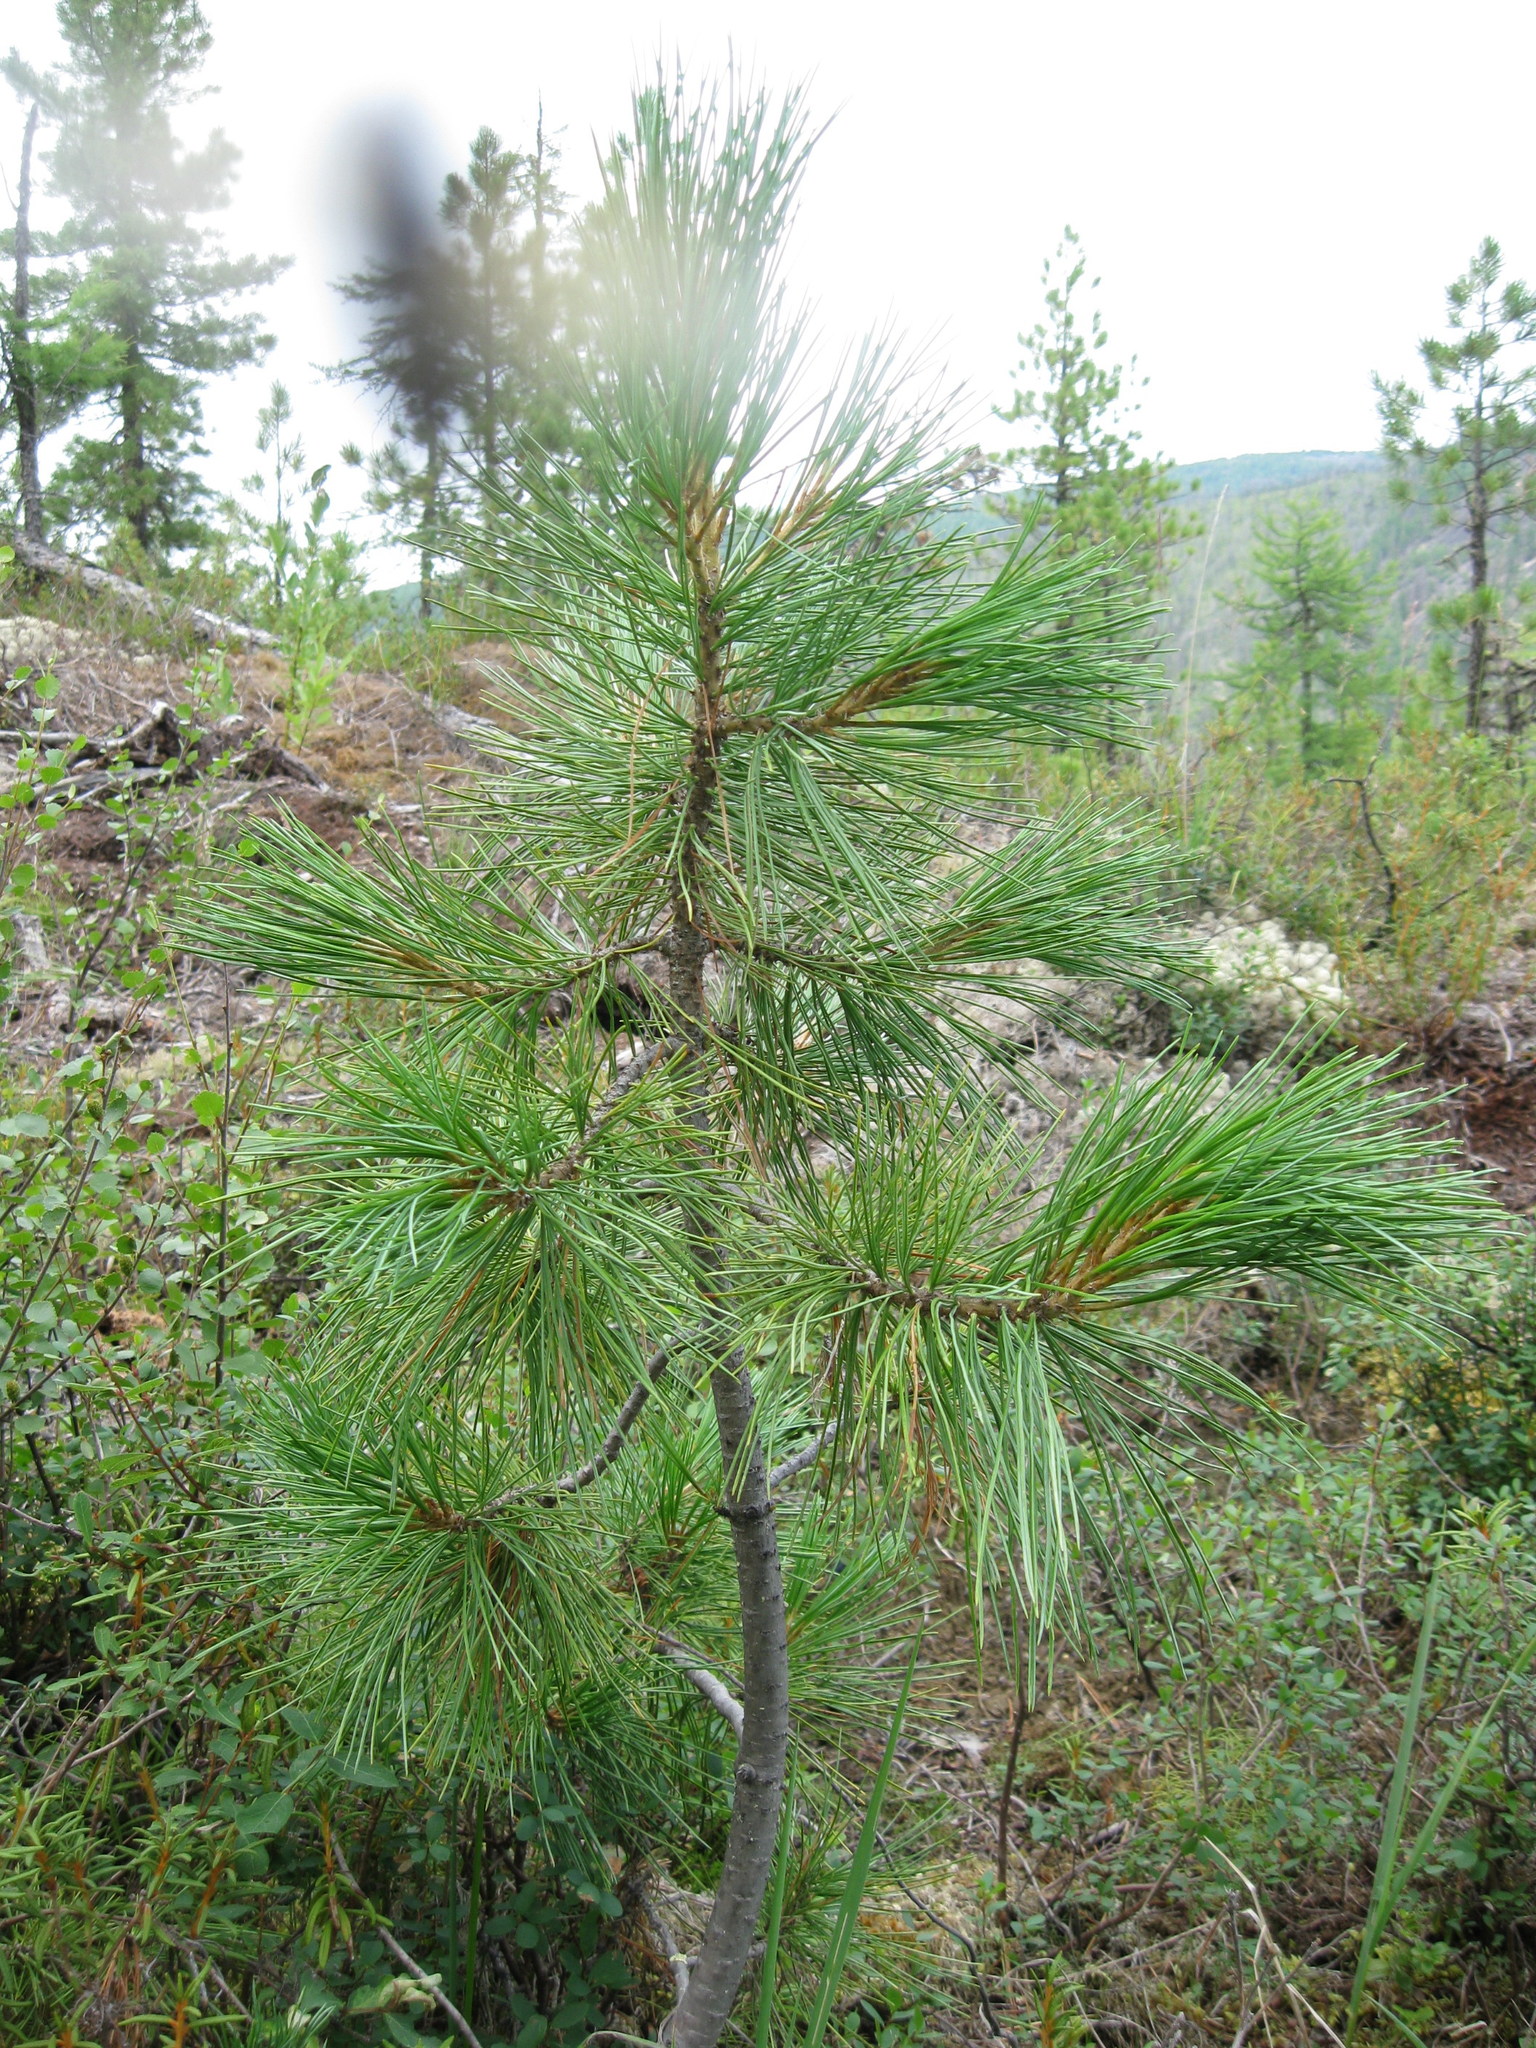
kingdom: Plantae
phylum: Tracheophyta
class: Pinopsida
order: Pinales
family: Pinaceae
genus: Pinus
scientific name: Pinus sibirica
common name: Siberian pine
